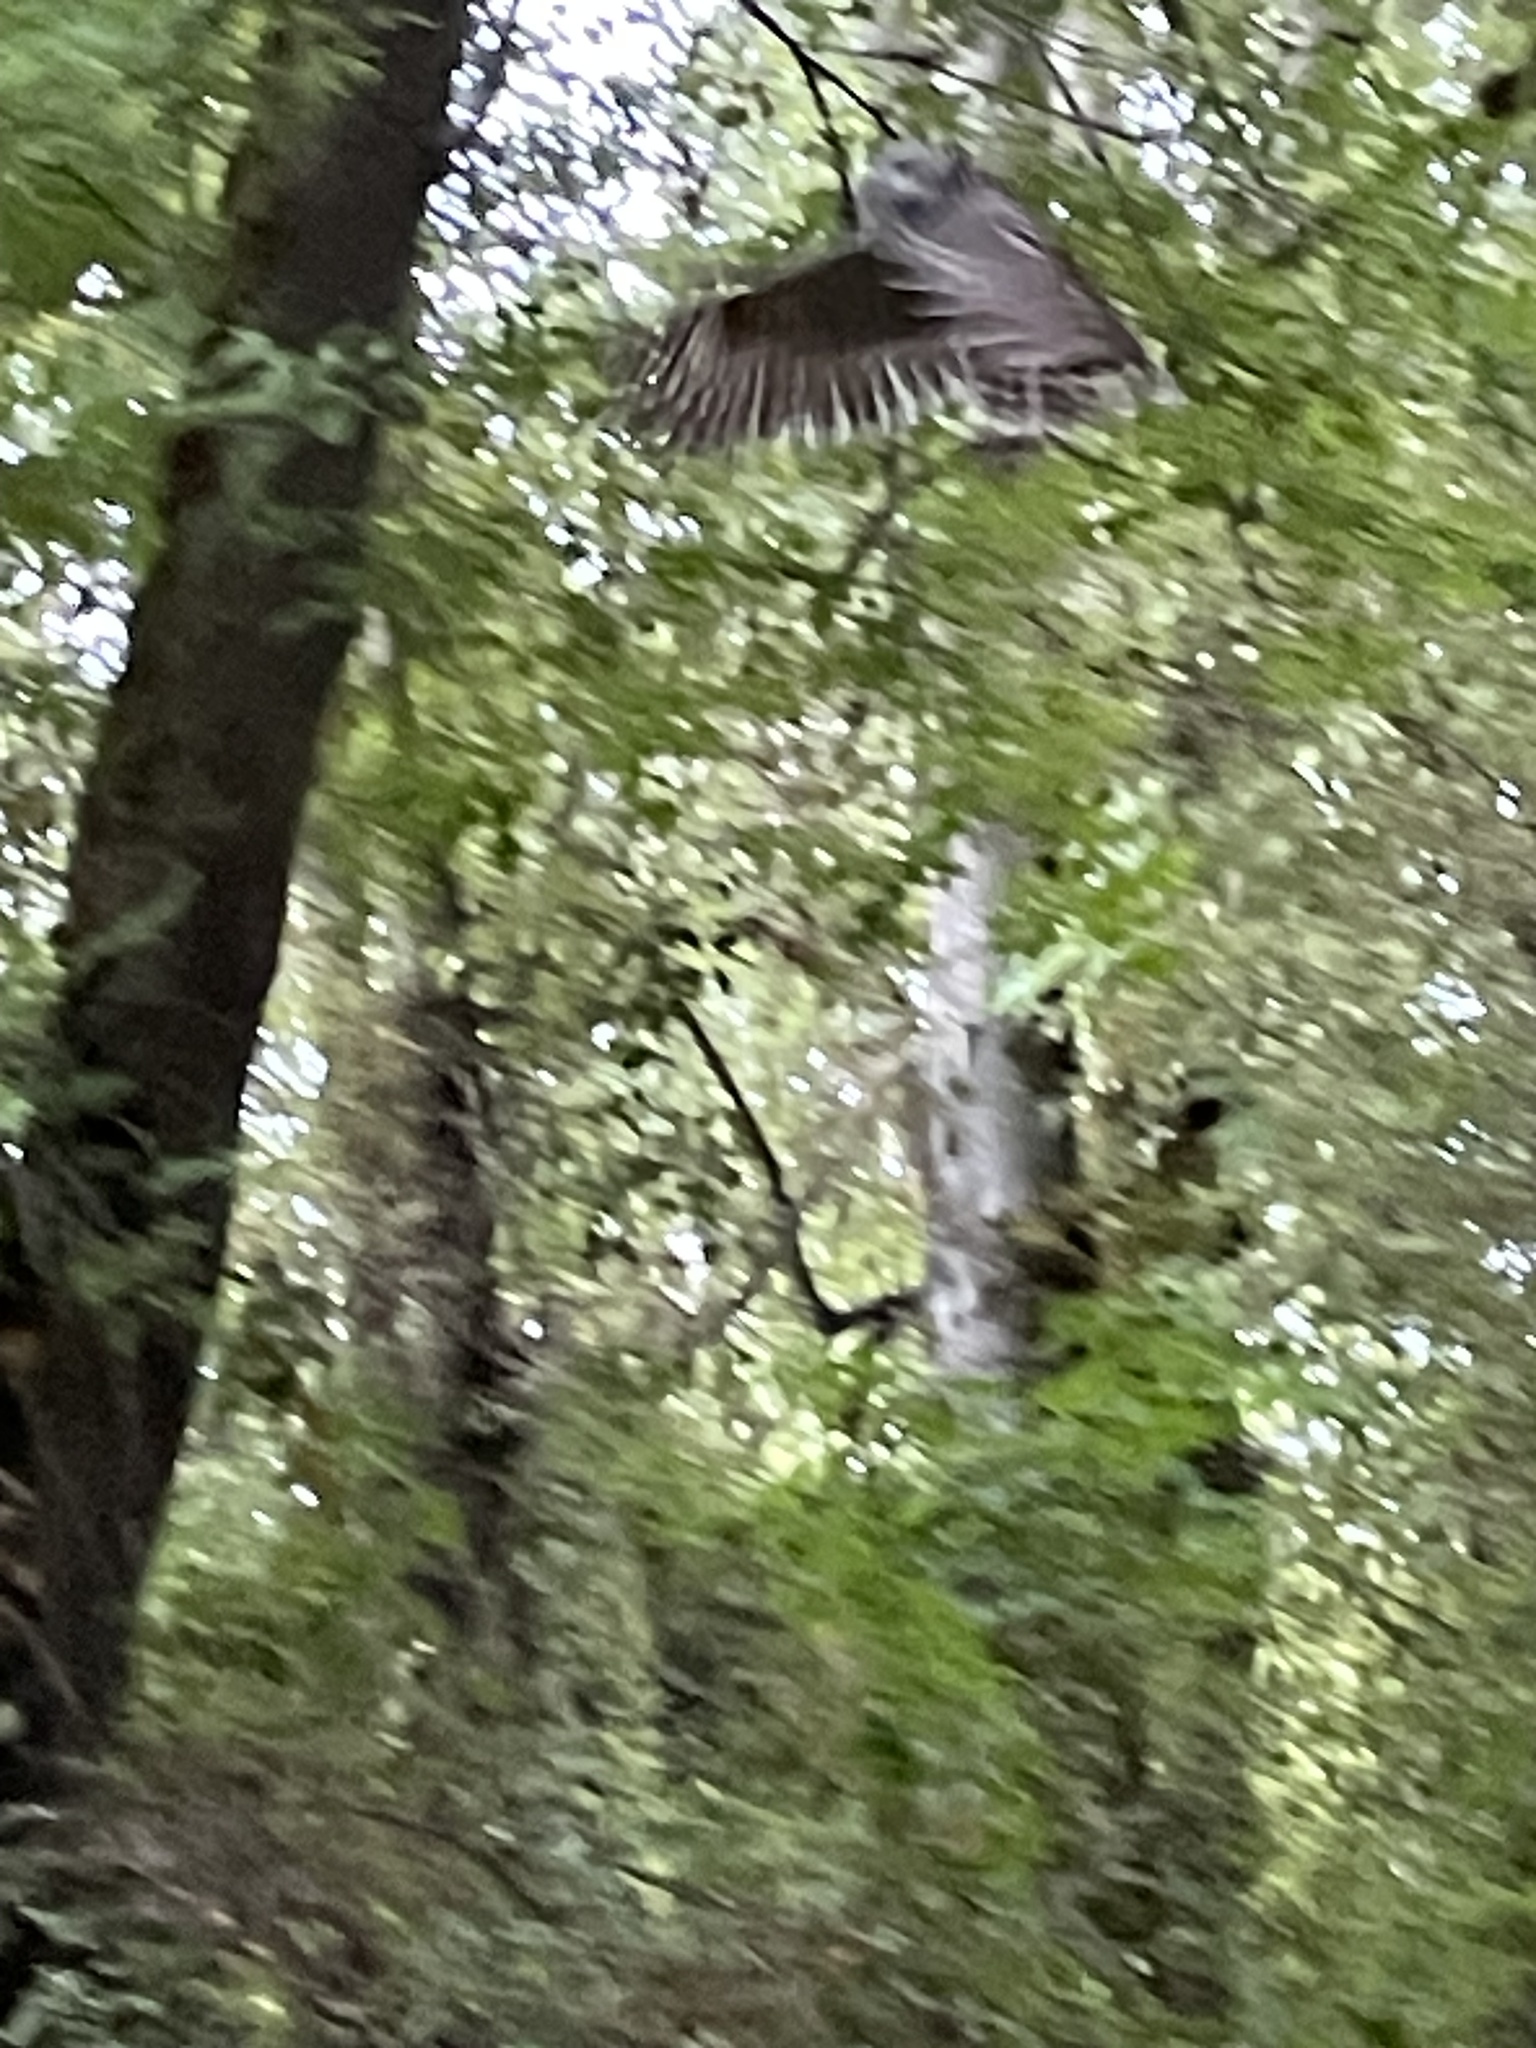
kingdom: Animalia
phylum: Chordata
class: Aves
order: Strigiformes
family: Strigidae
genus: Strix
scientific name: Strix varia
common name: Barred owl
